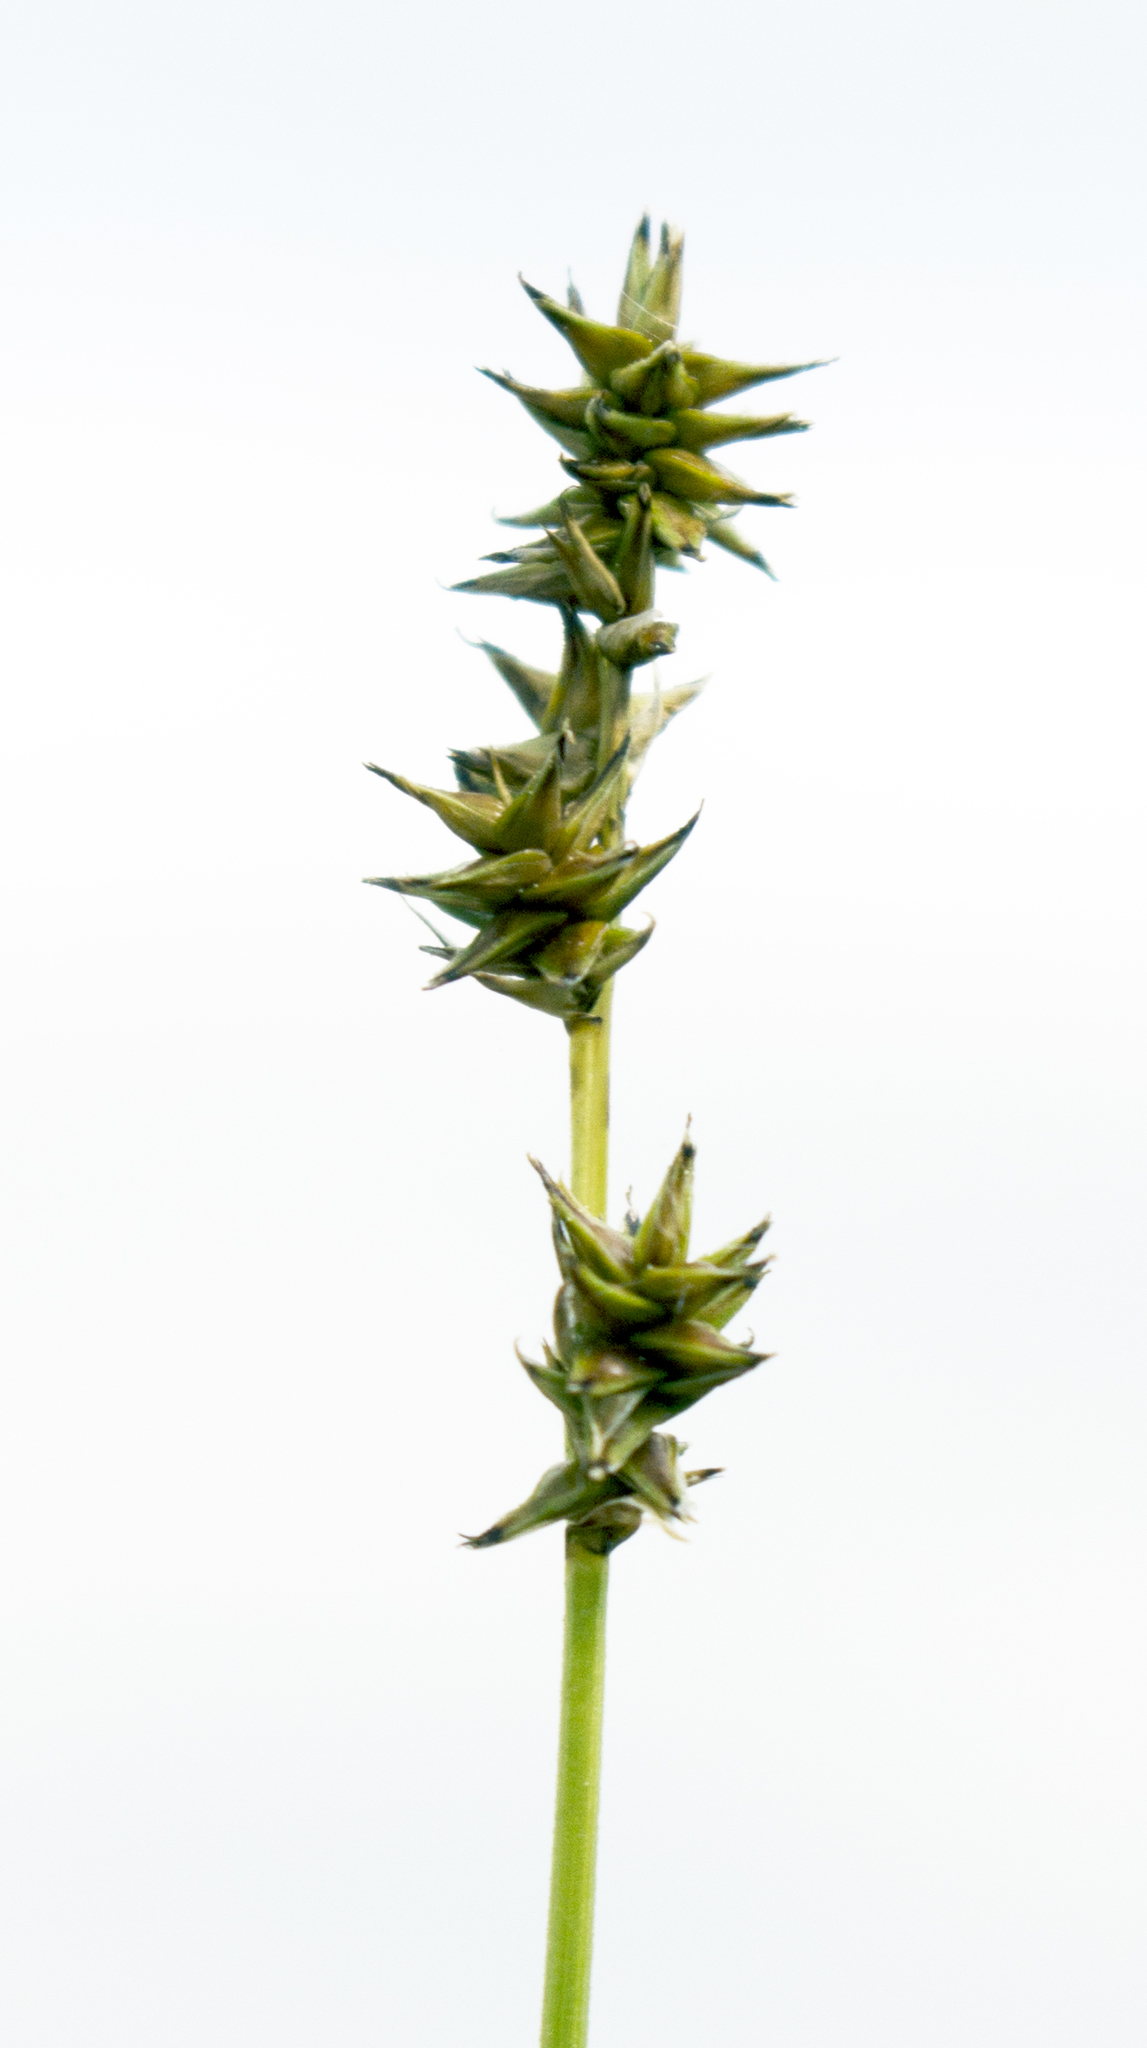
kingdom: Plantae
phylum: Tracheophyta
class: Liliopsida
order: Poales
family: Cyperaceae
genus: Carex
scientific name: Carex sterilis
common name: Dioecious sedge
